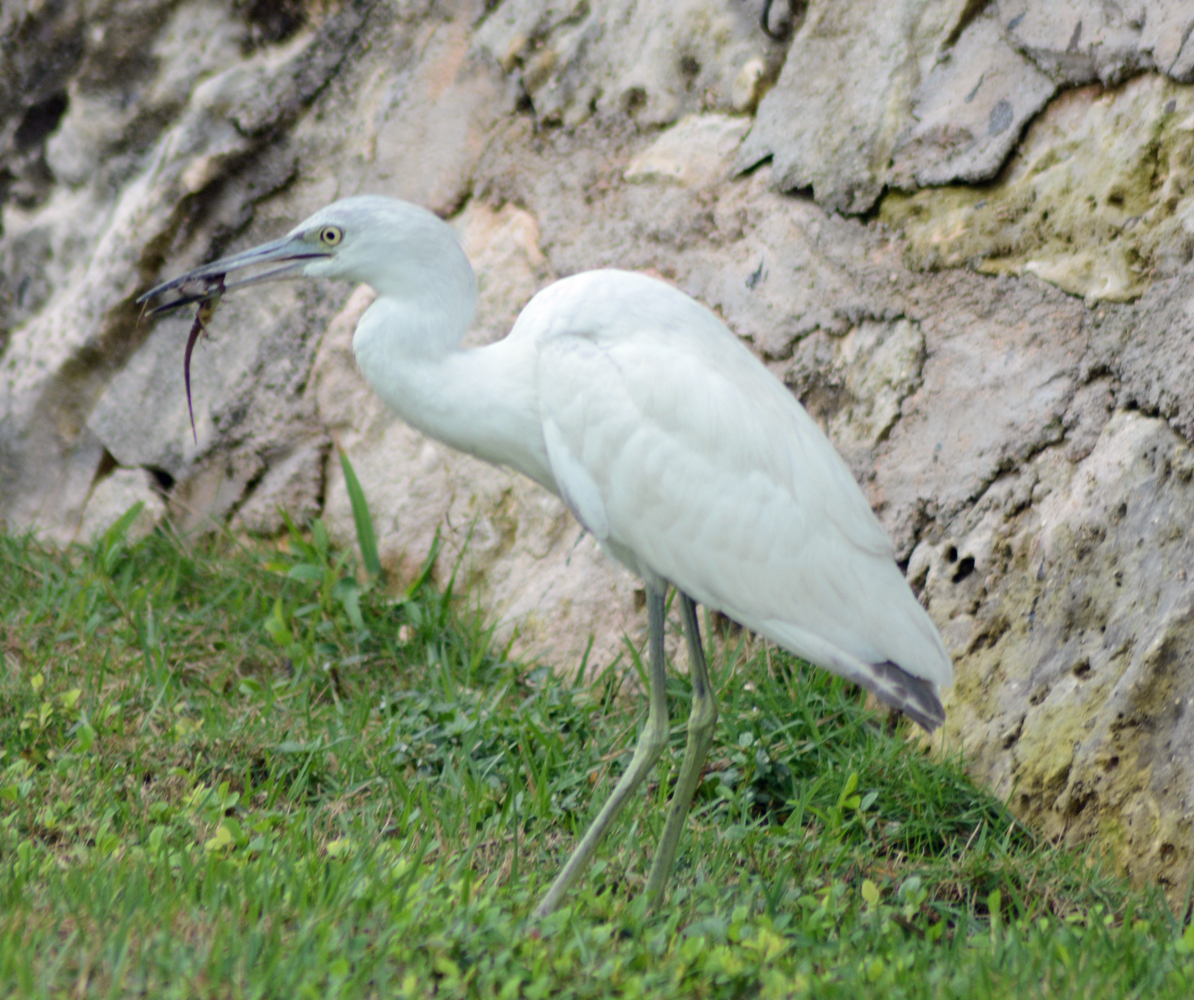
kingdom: Animalia
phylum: Chordata
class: Aves
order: Pelecaniformes
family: Ardeidae
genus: Egretta
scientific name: Egretta caerulea
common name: Little blue heron
